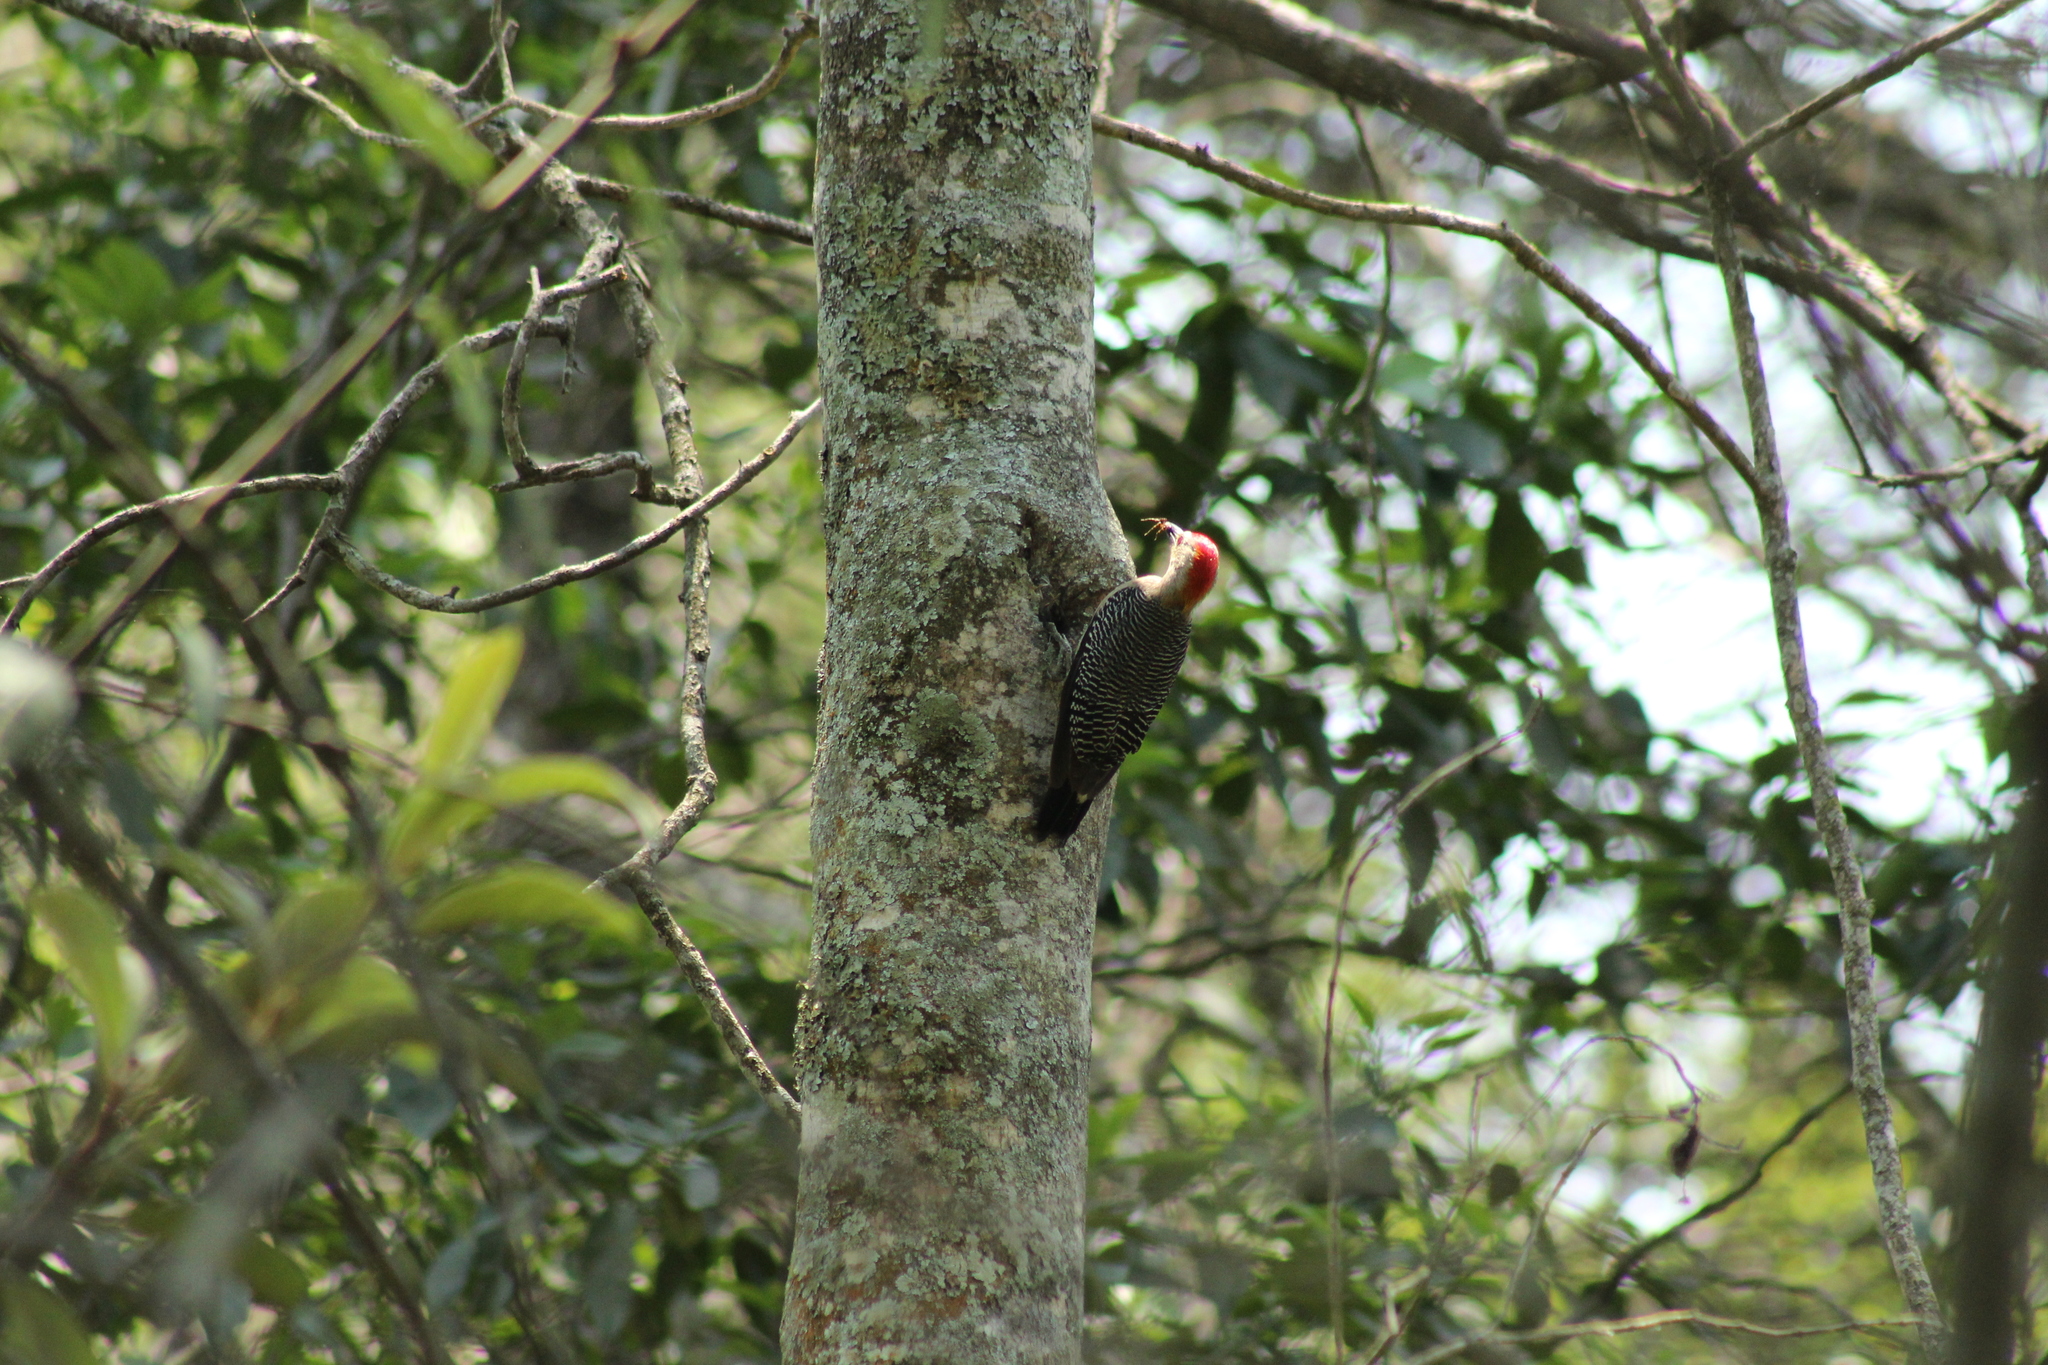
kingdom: Animalia
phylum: Chordata
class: Aves
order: Piciformes
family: Picidae
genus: Melanerpes
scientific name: Melanerpes aurifrons
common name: Golden-fronted woodpecker
